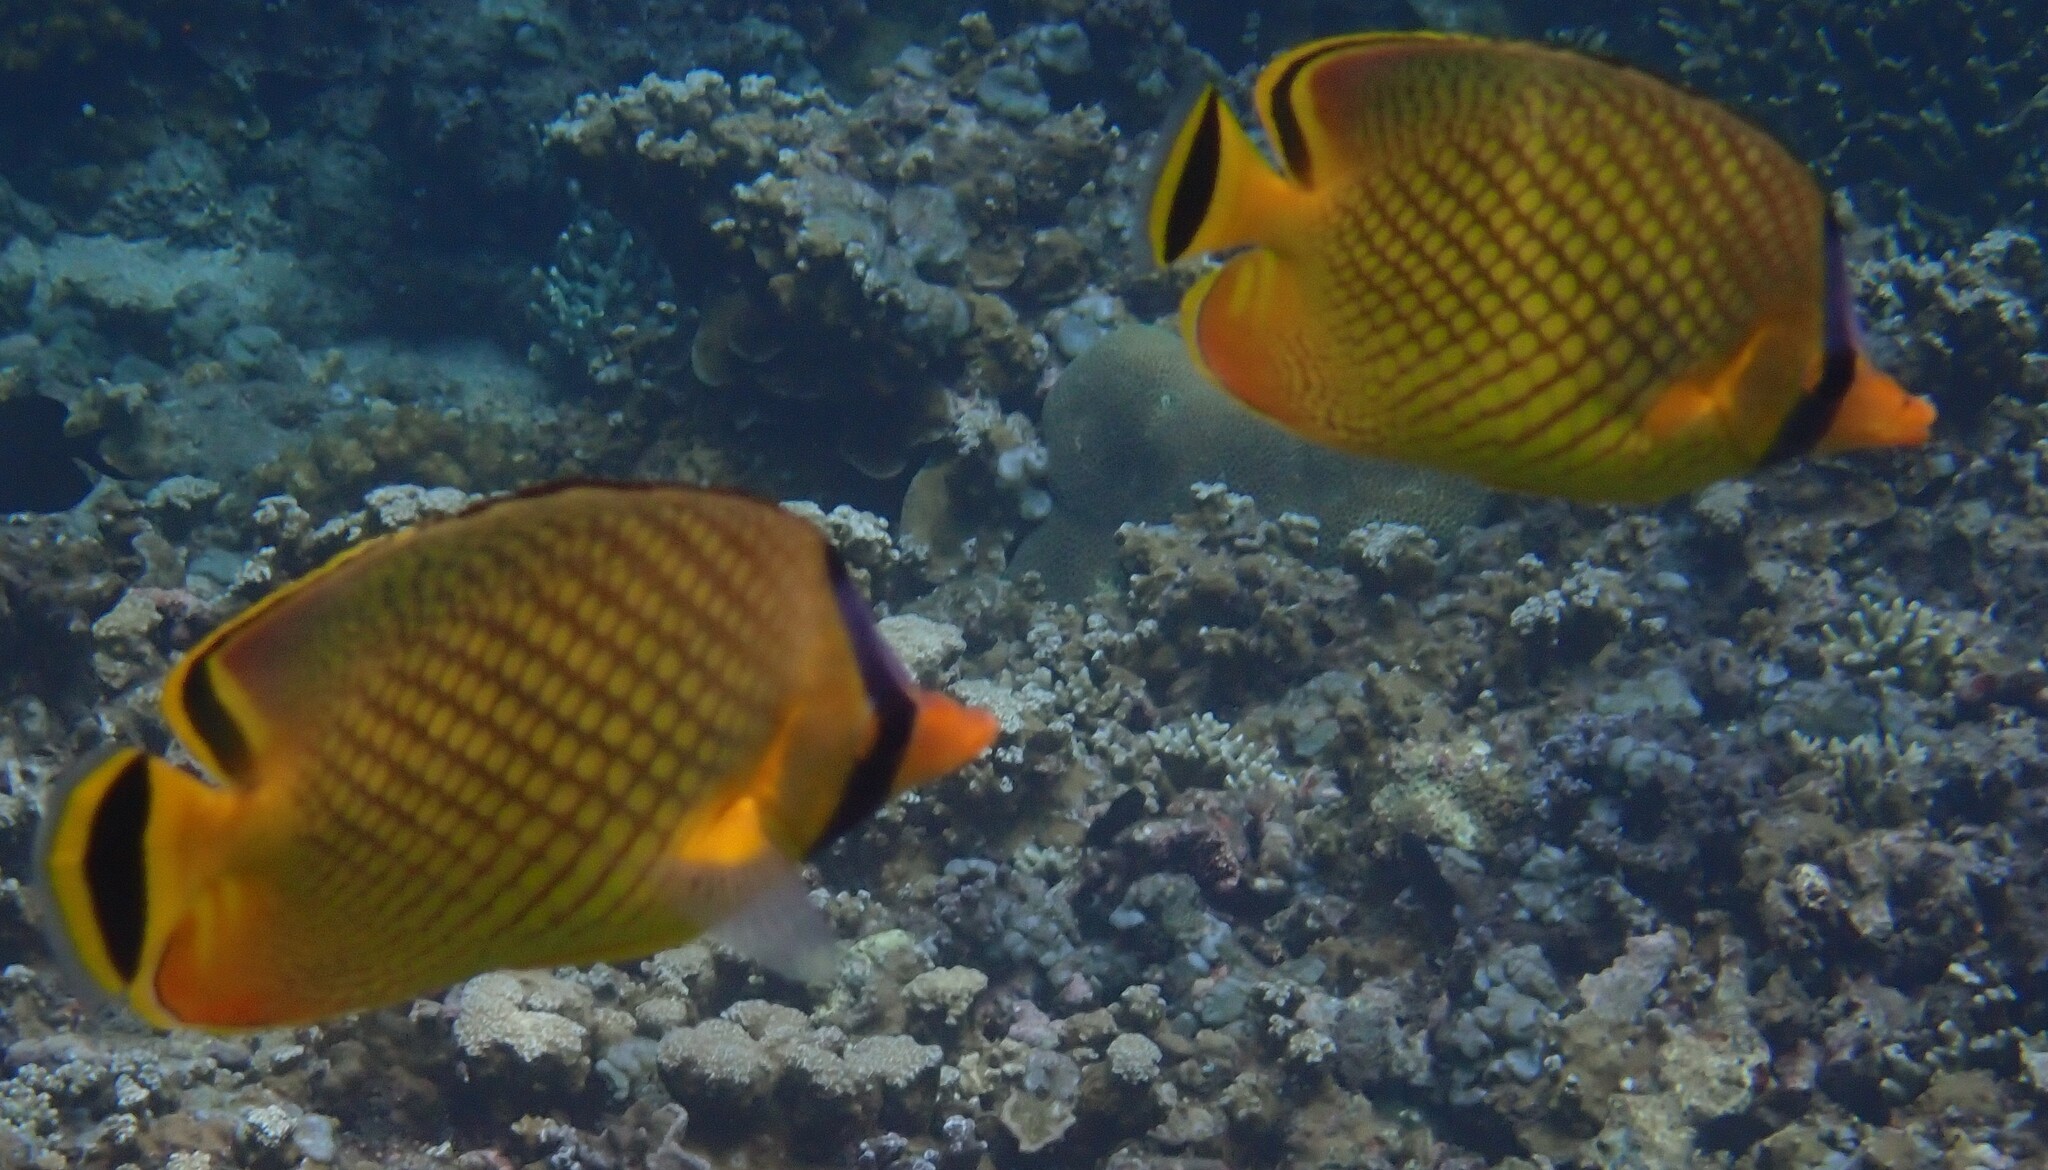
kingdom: Animalia
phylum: Chordata
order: Perciformes
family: Chaetodontidae
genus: Chaetodon
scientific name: Chaetodon rafflesii
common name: Latticed butterflyfish
